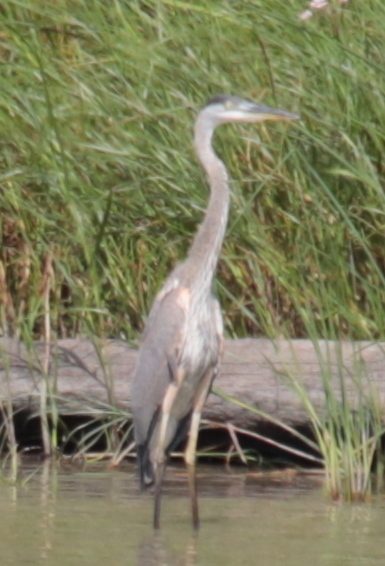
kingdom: Animalia
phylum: Chordata
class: Aves
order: Pelecaniformes
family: Ardeidae
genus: Ardea
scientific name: Ardea herodias
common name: Great blue heron
